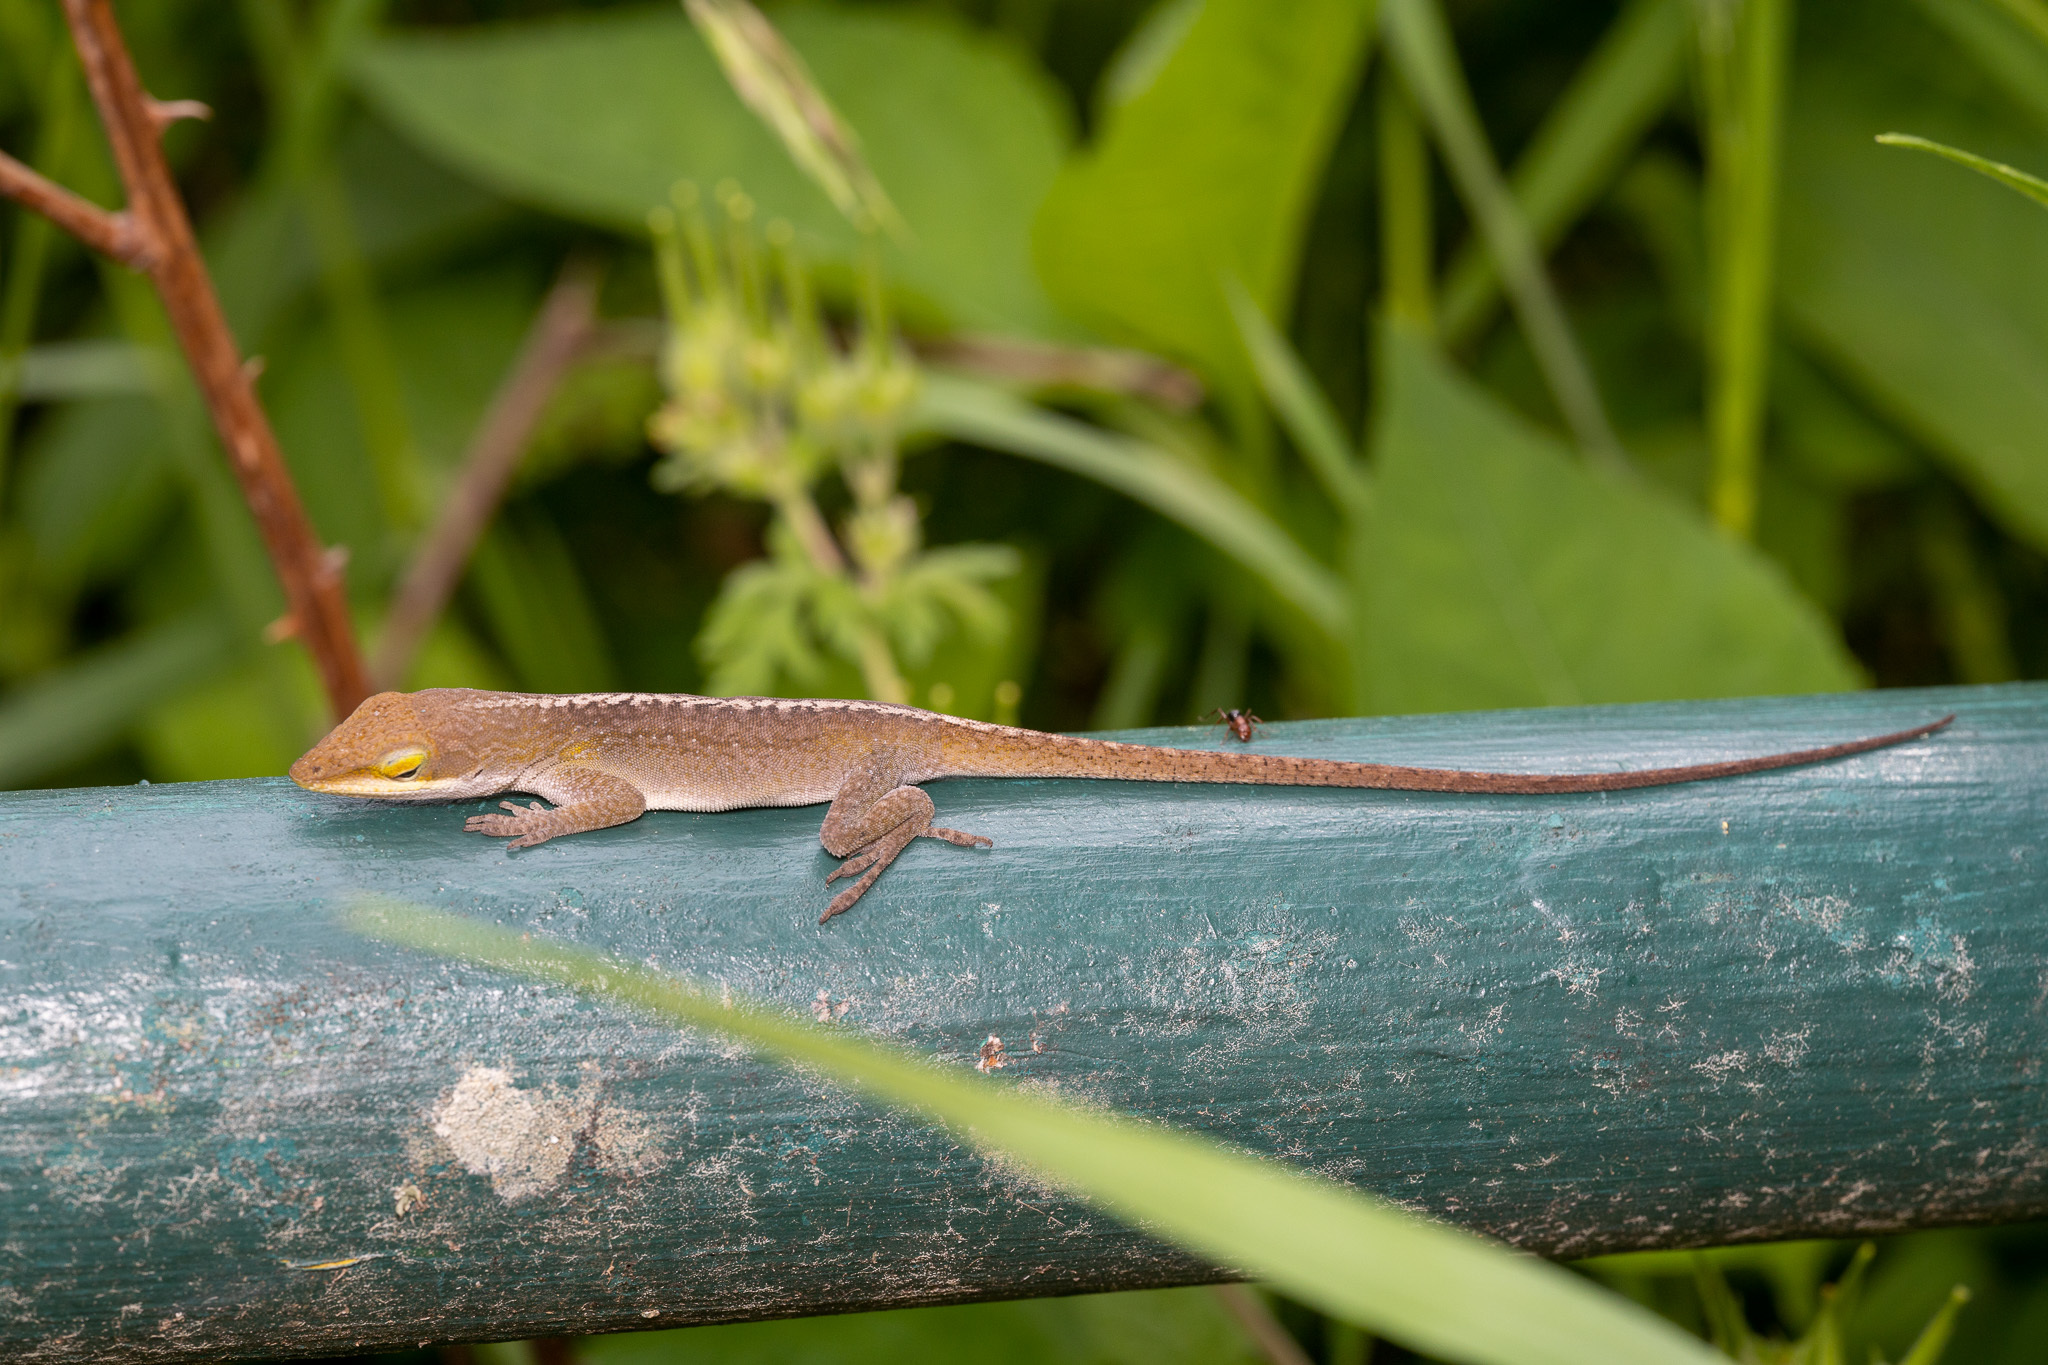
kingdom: Animalia
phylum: Chordata
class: Squamata
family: Dactyloidae
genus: Anolis
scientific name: Anolis carolinensis
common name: Green anole
